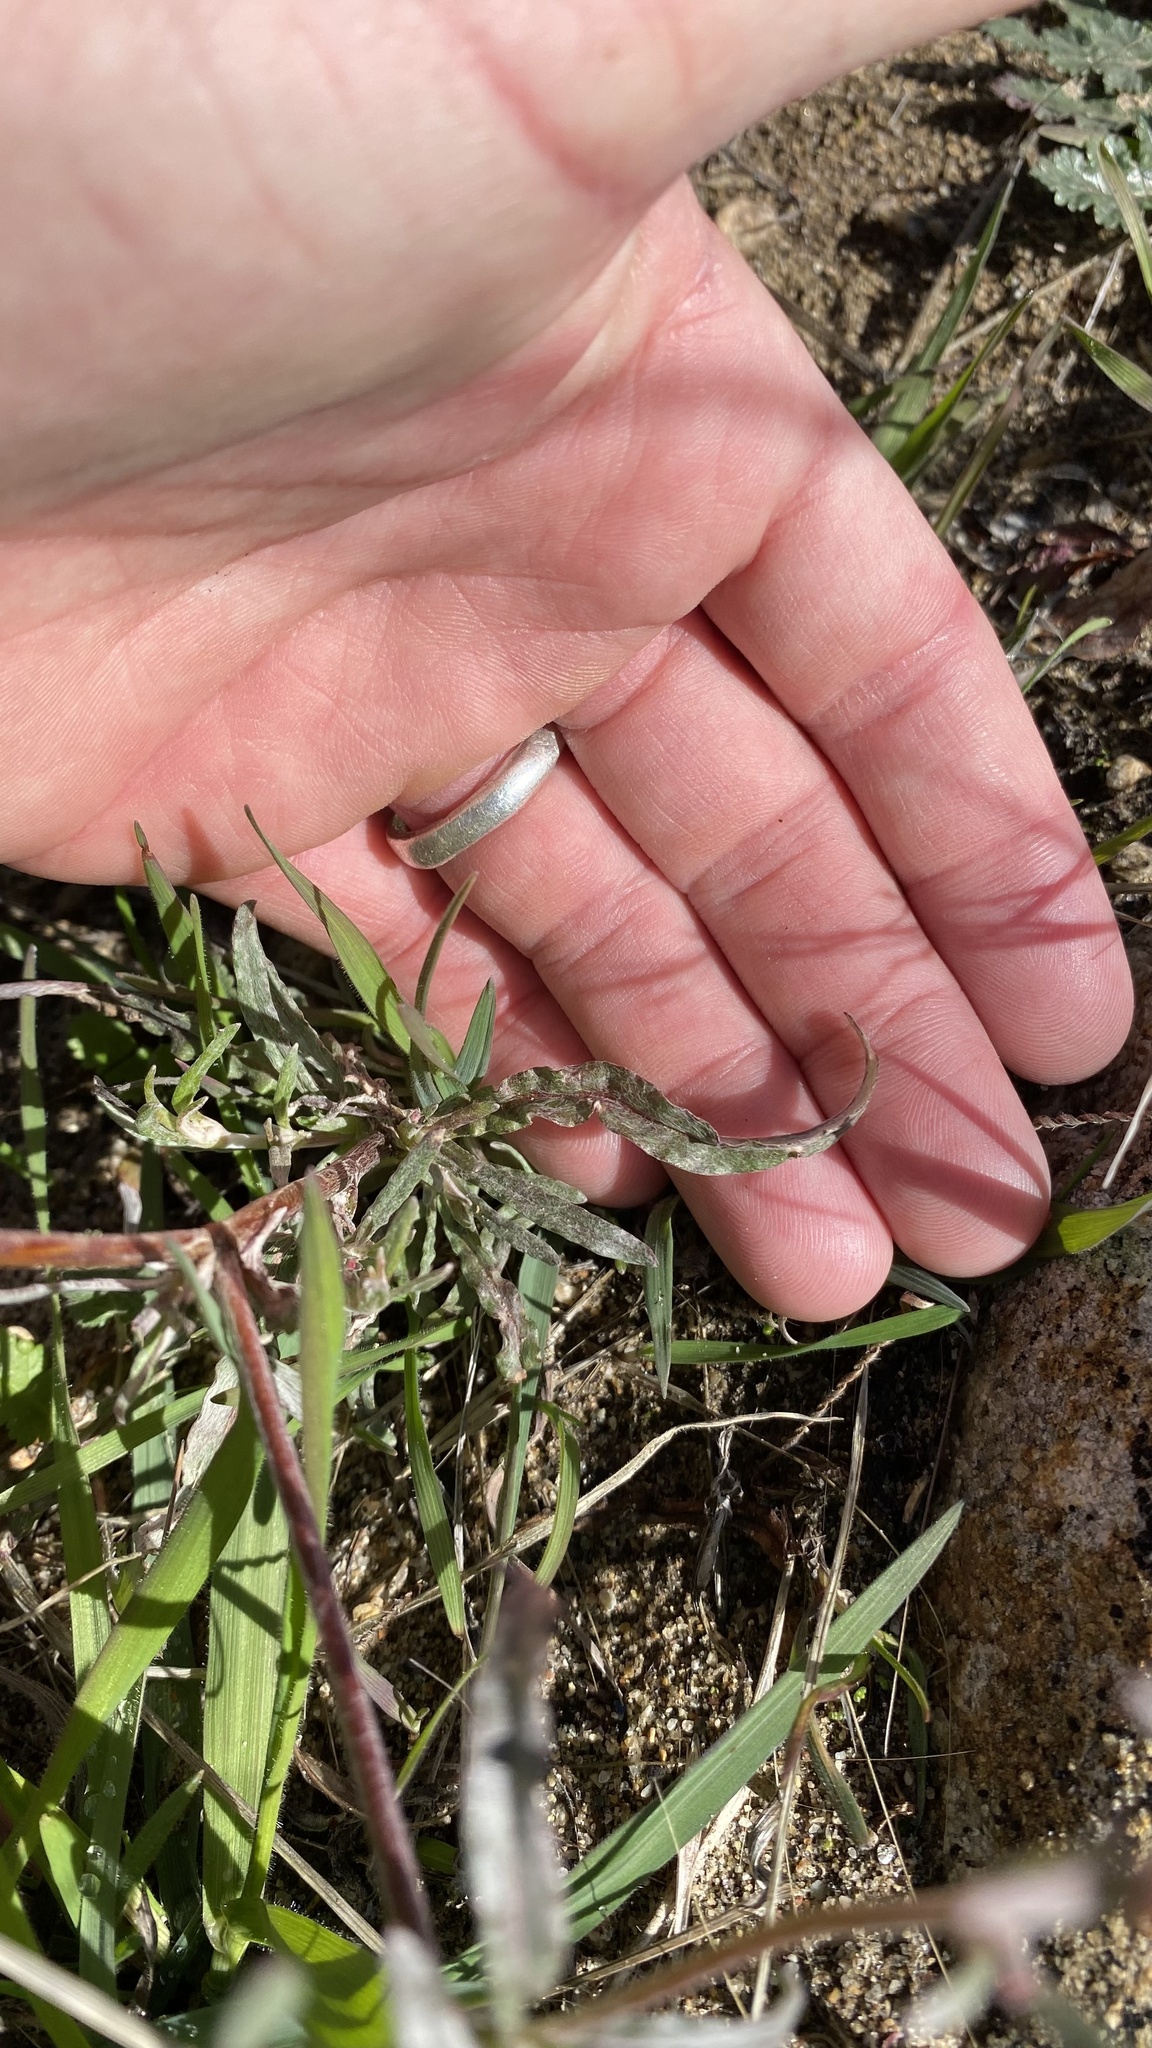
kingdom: Plantae
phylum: Tracheophyta
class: Magnoliopsida
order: Caryophyllales
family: Polygonaceae
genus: Chorizanthe
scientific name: Chorizanthe membranacea
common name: Pink spineflower
